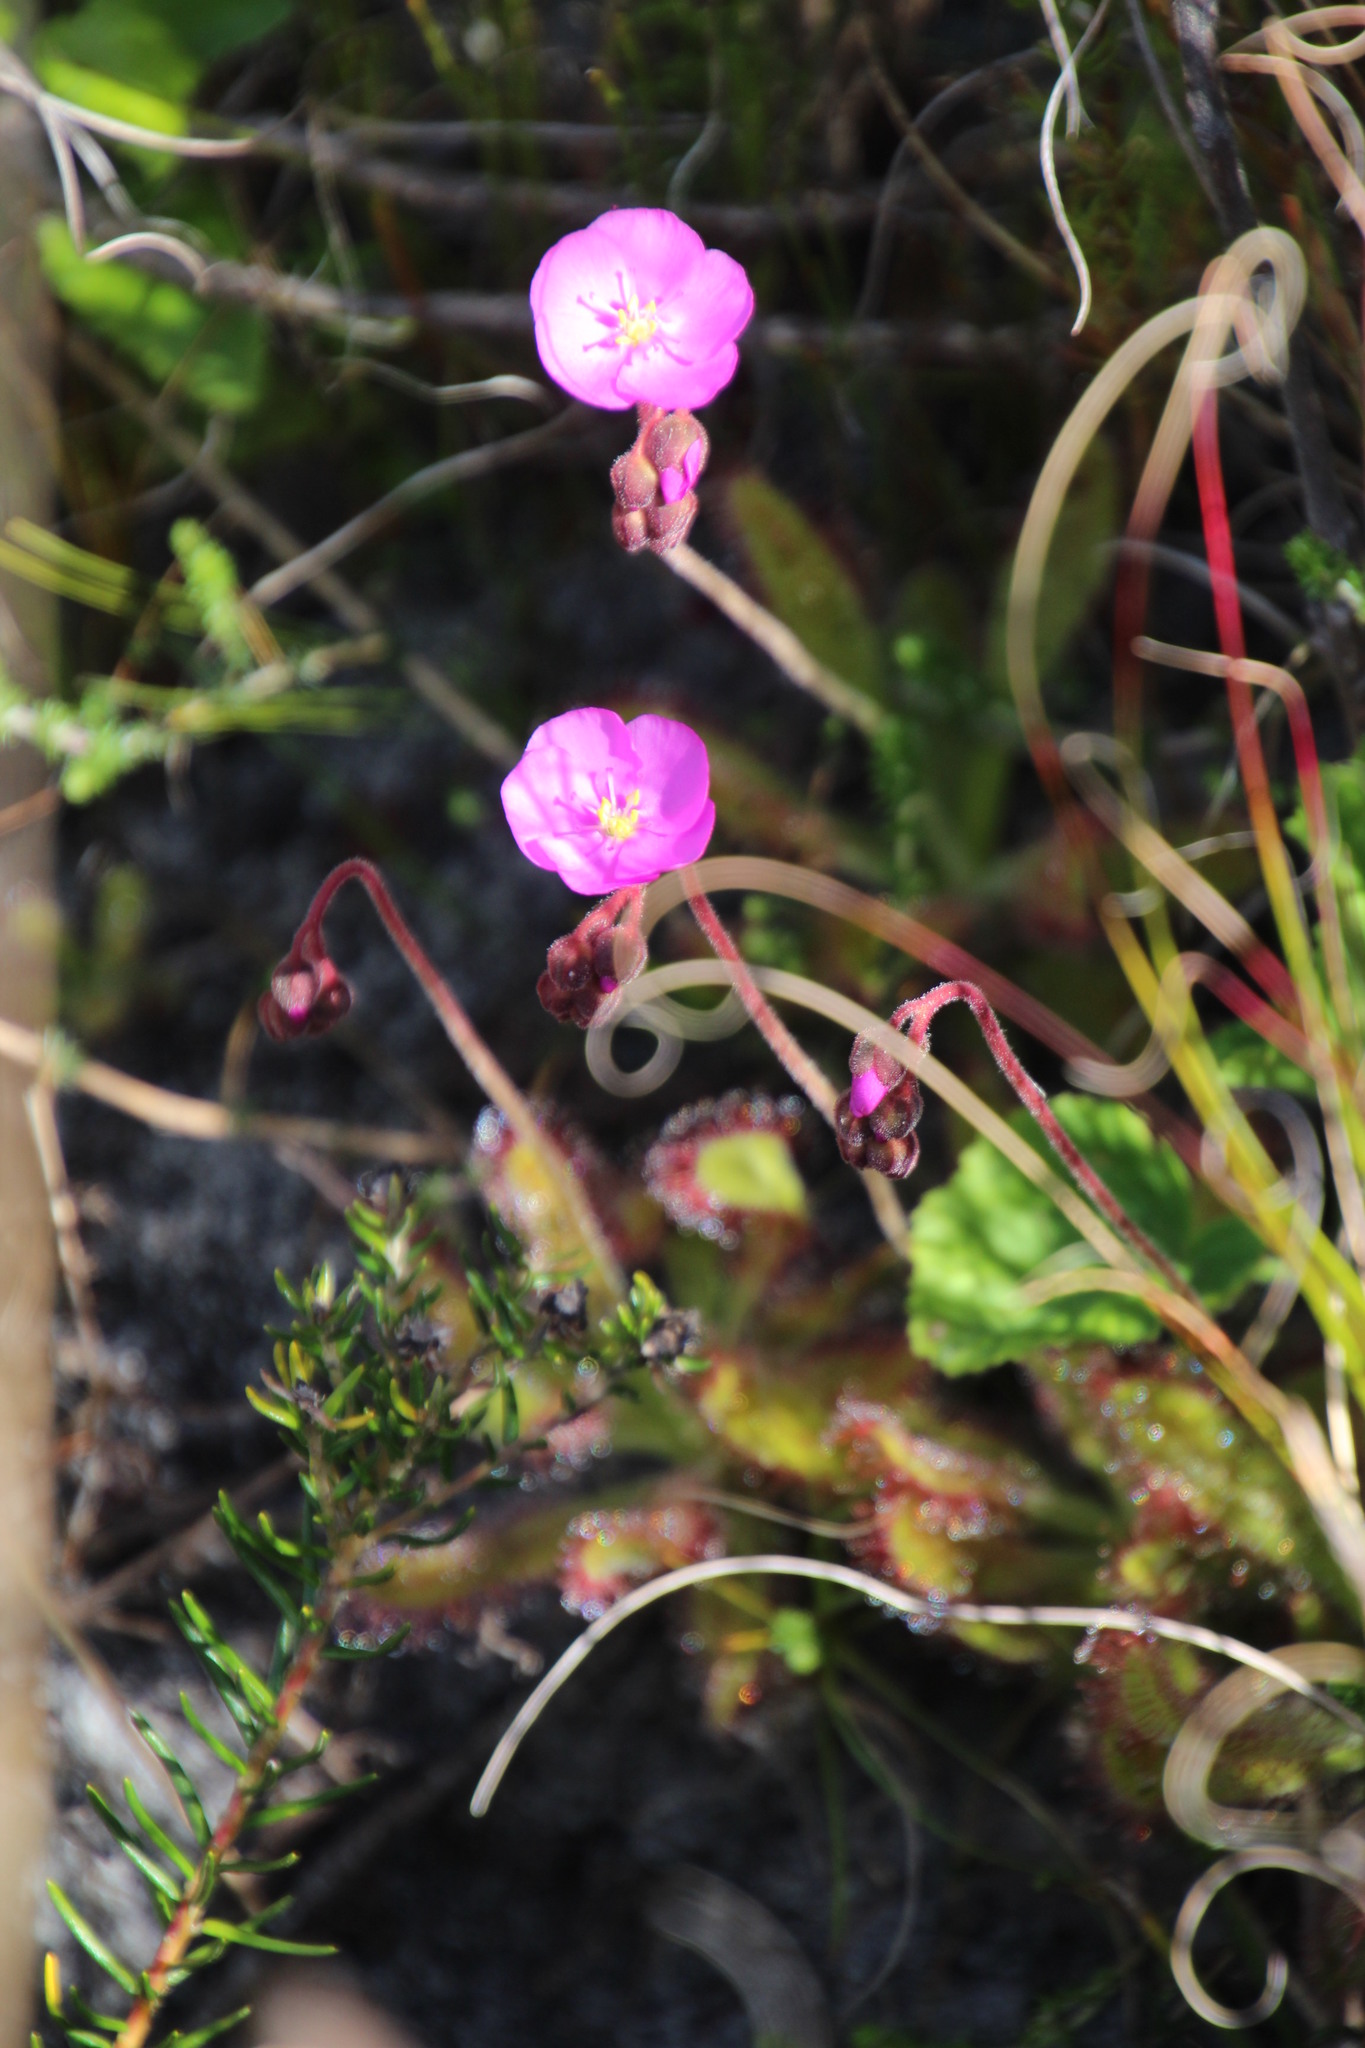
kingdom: Plantae
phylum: Tracheophyta
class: Magnoliopsida
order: Caryophyllales
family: Droseraceae
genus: Drosera
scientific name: Drosera hilaris
